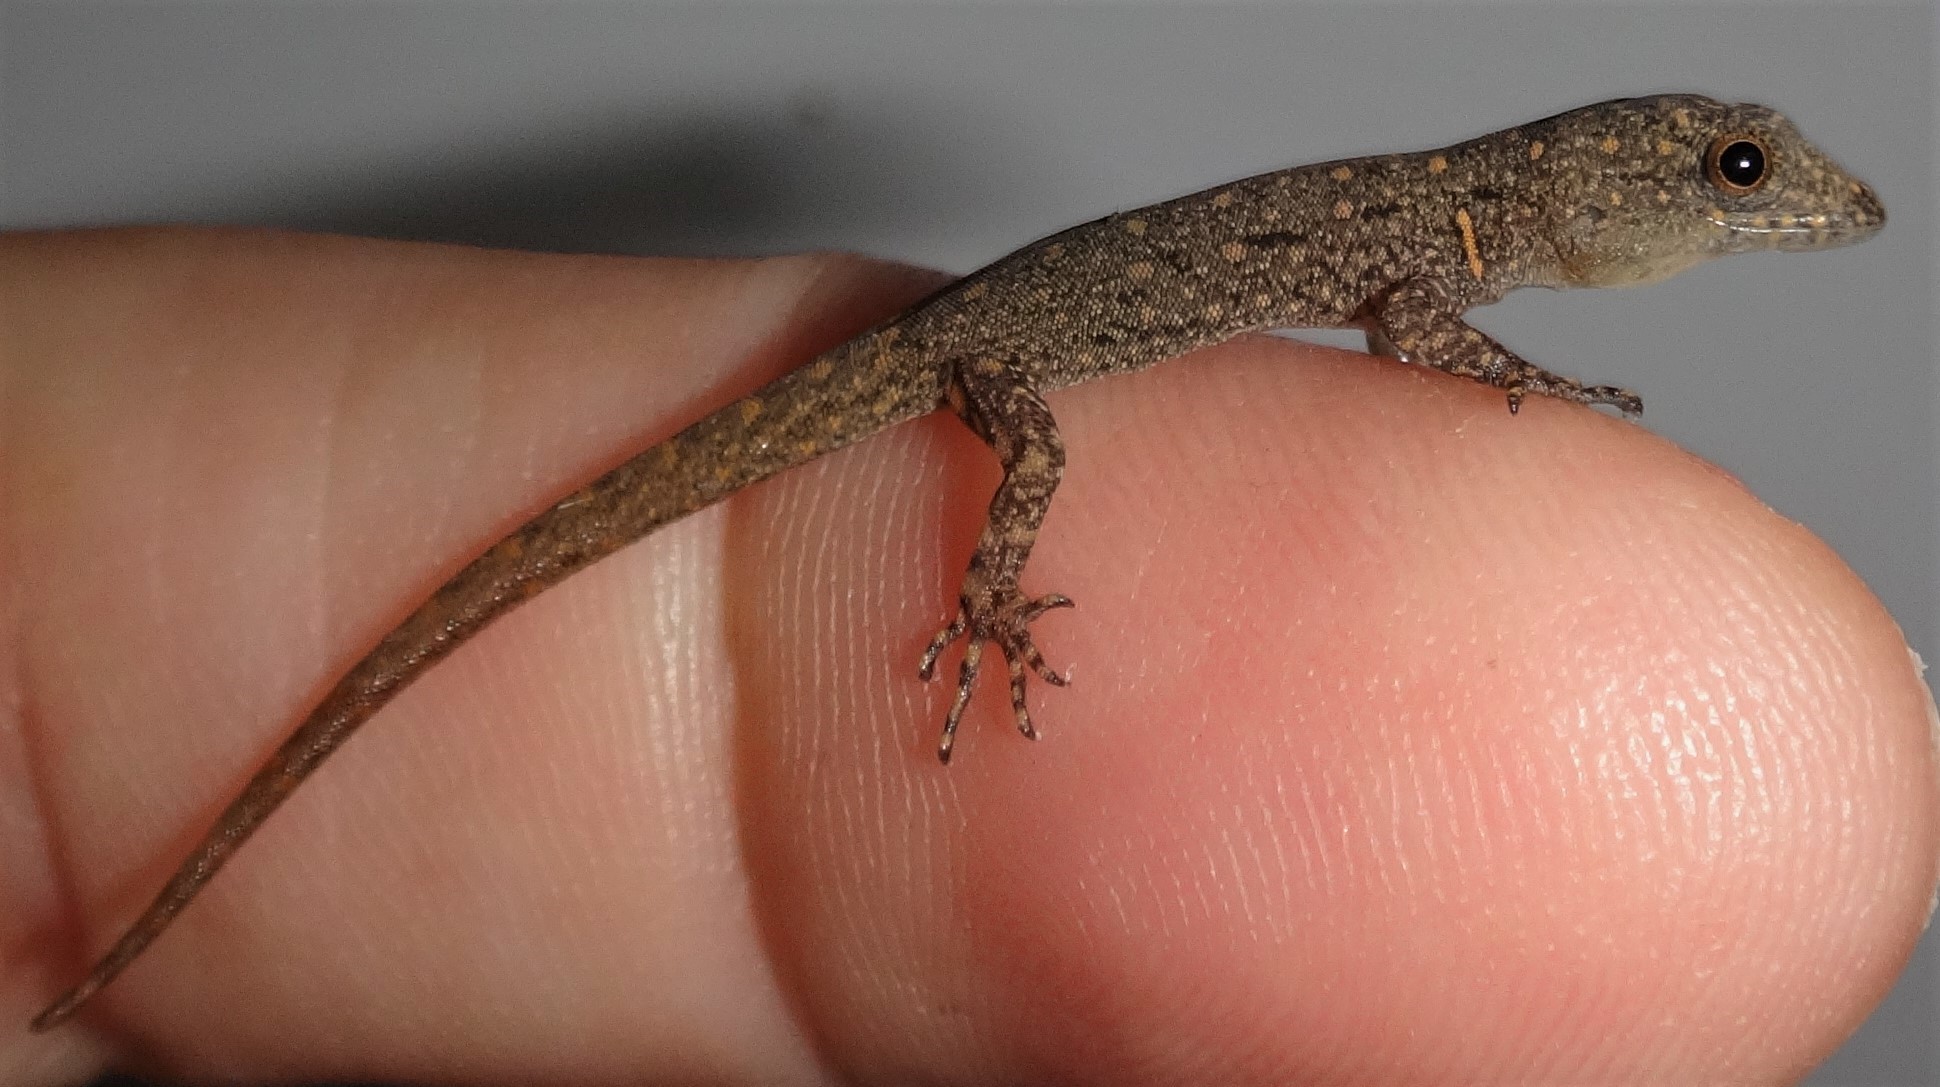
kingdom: Animalia
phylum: Chordata
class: Squamata
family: Sphaerodactylidae
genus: Gonatodes
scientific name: Gonatodes vittatus
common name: Wiegmann's striped gecko
